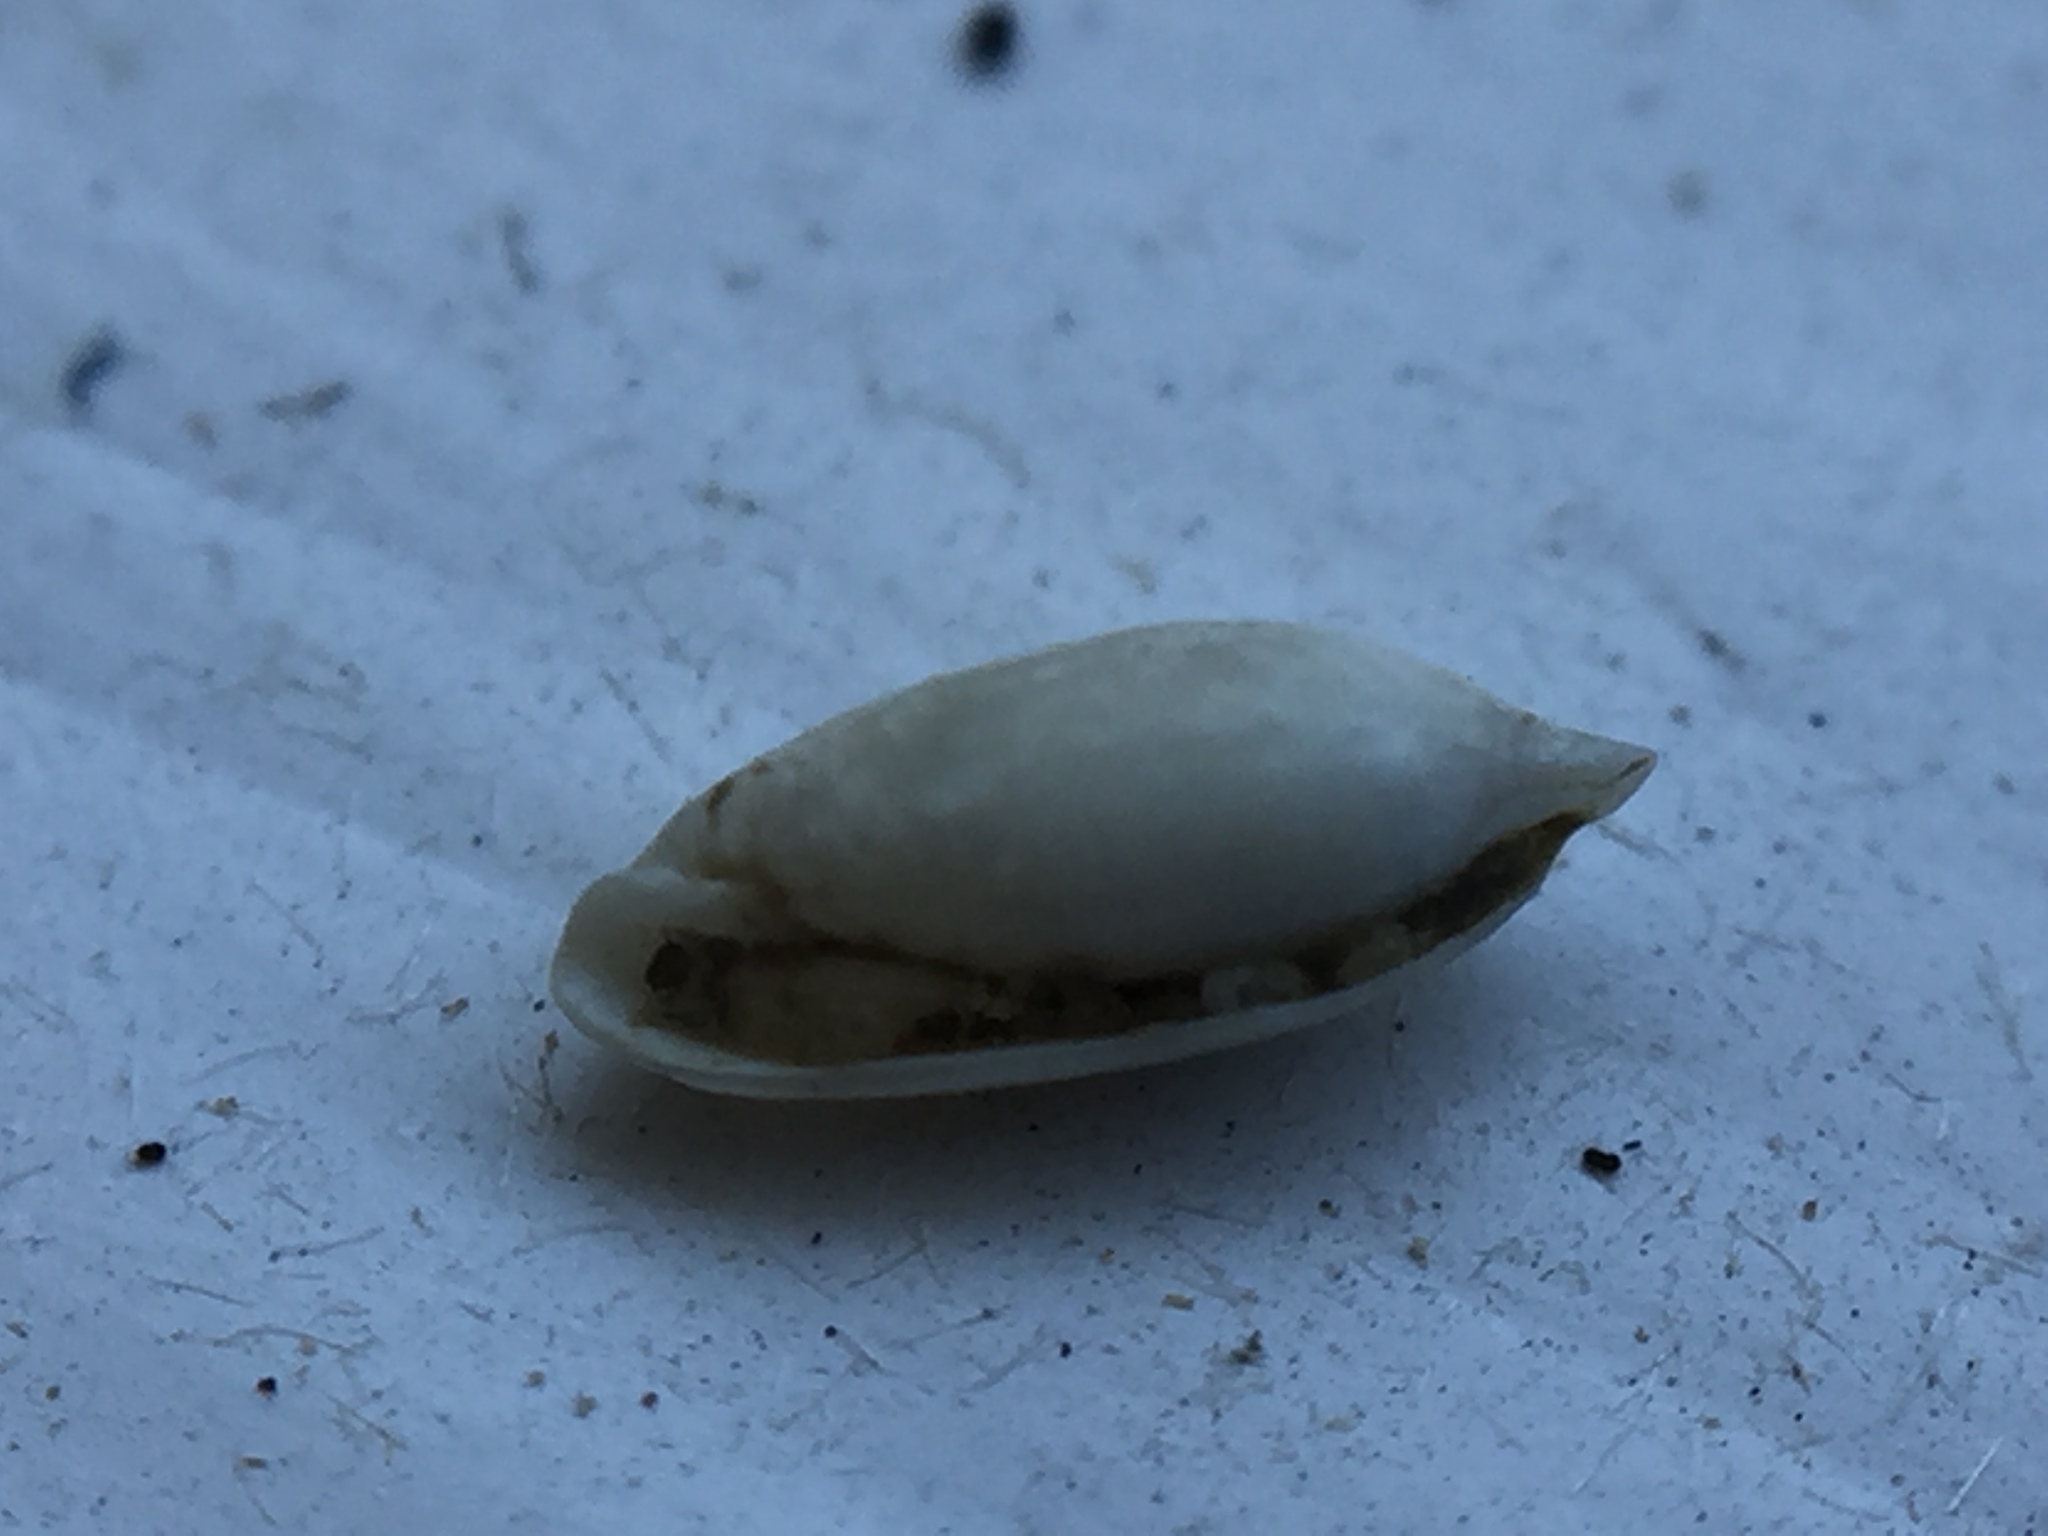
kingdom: Animalia
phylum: Mollusca
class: Gastropoda
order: Cephalaspidea
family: Rhizoridae
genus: Volvulella
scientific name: Volvulella nesentus
